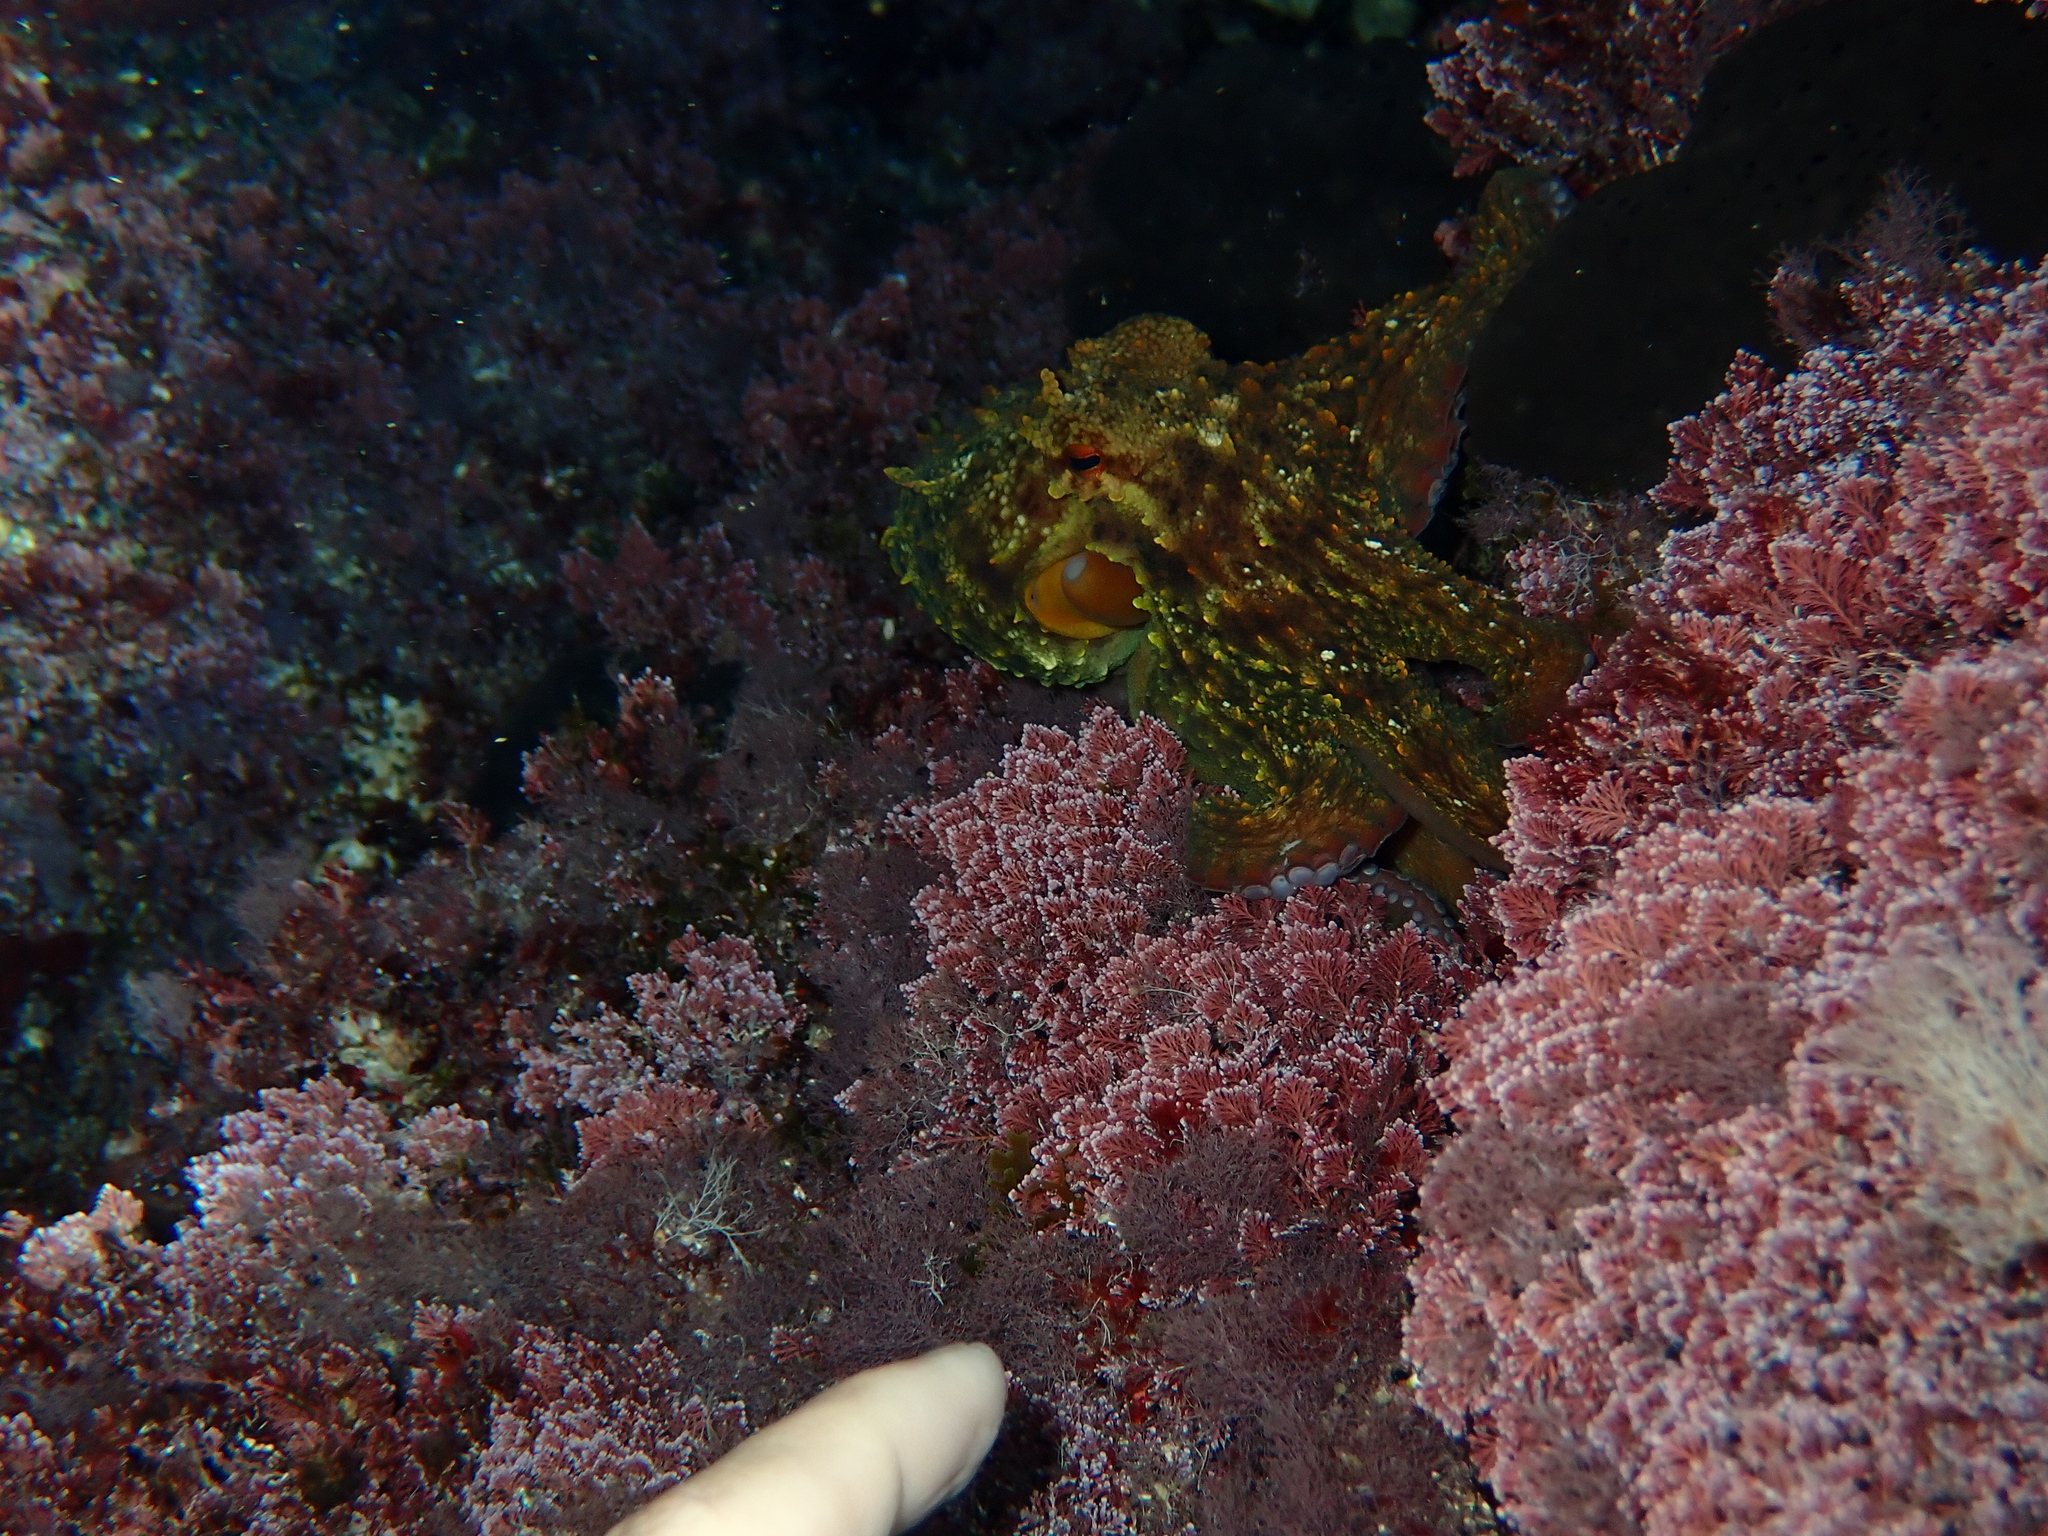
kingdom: Animalia
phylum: Mollusca
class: Cephalopoda
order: Octopoda
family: Octopodidae
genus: Octopus
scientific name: Octopus vulgaris
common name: Common octopus
